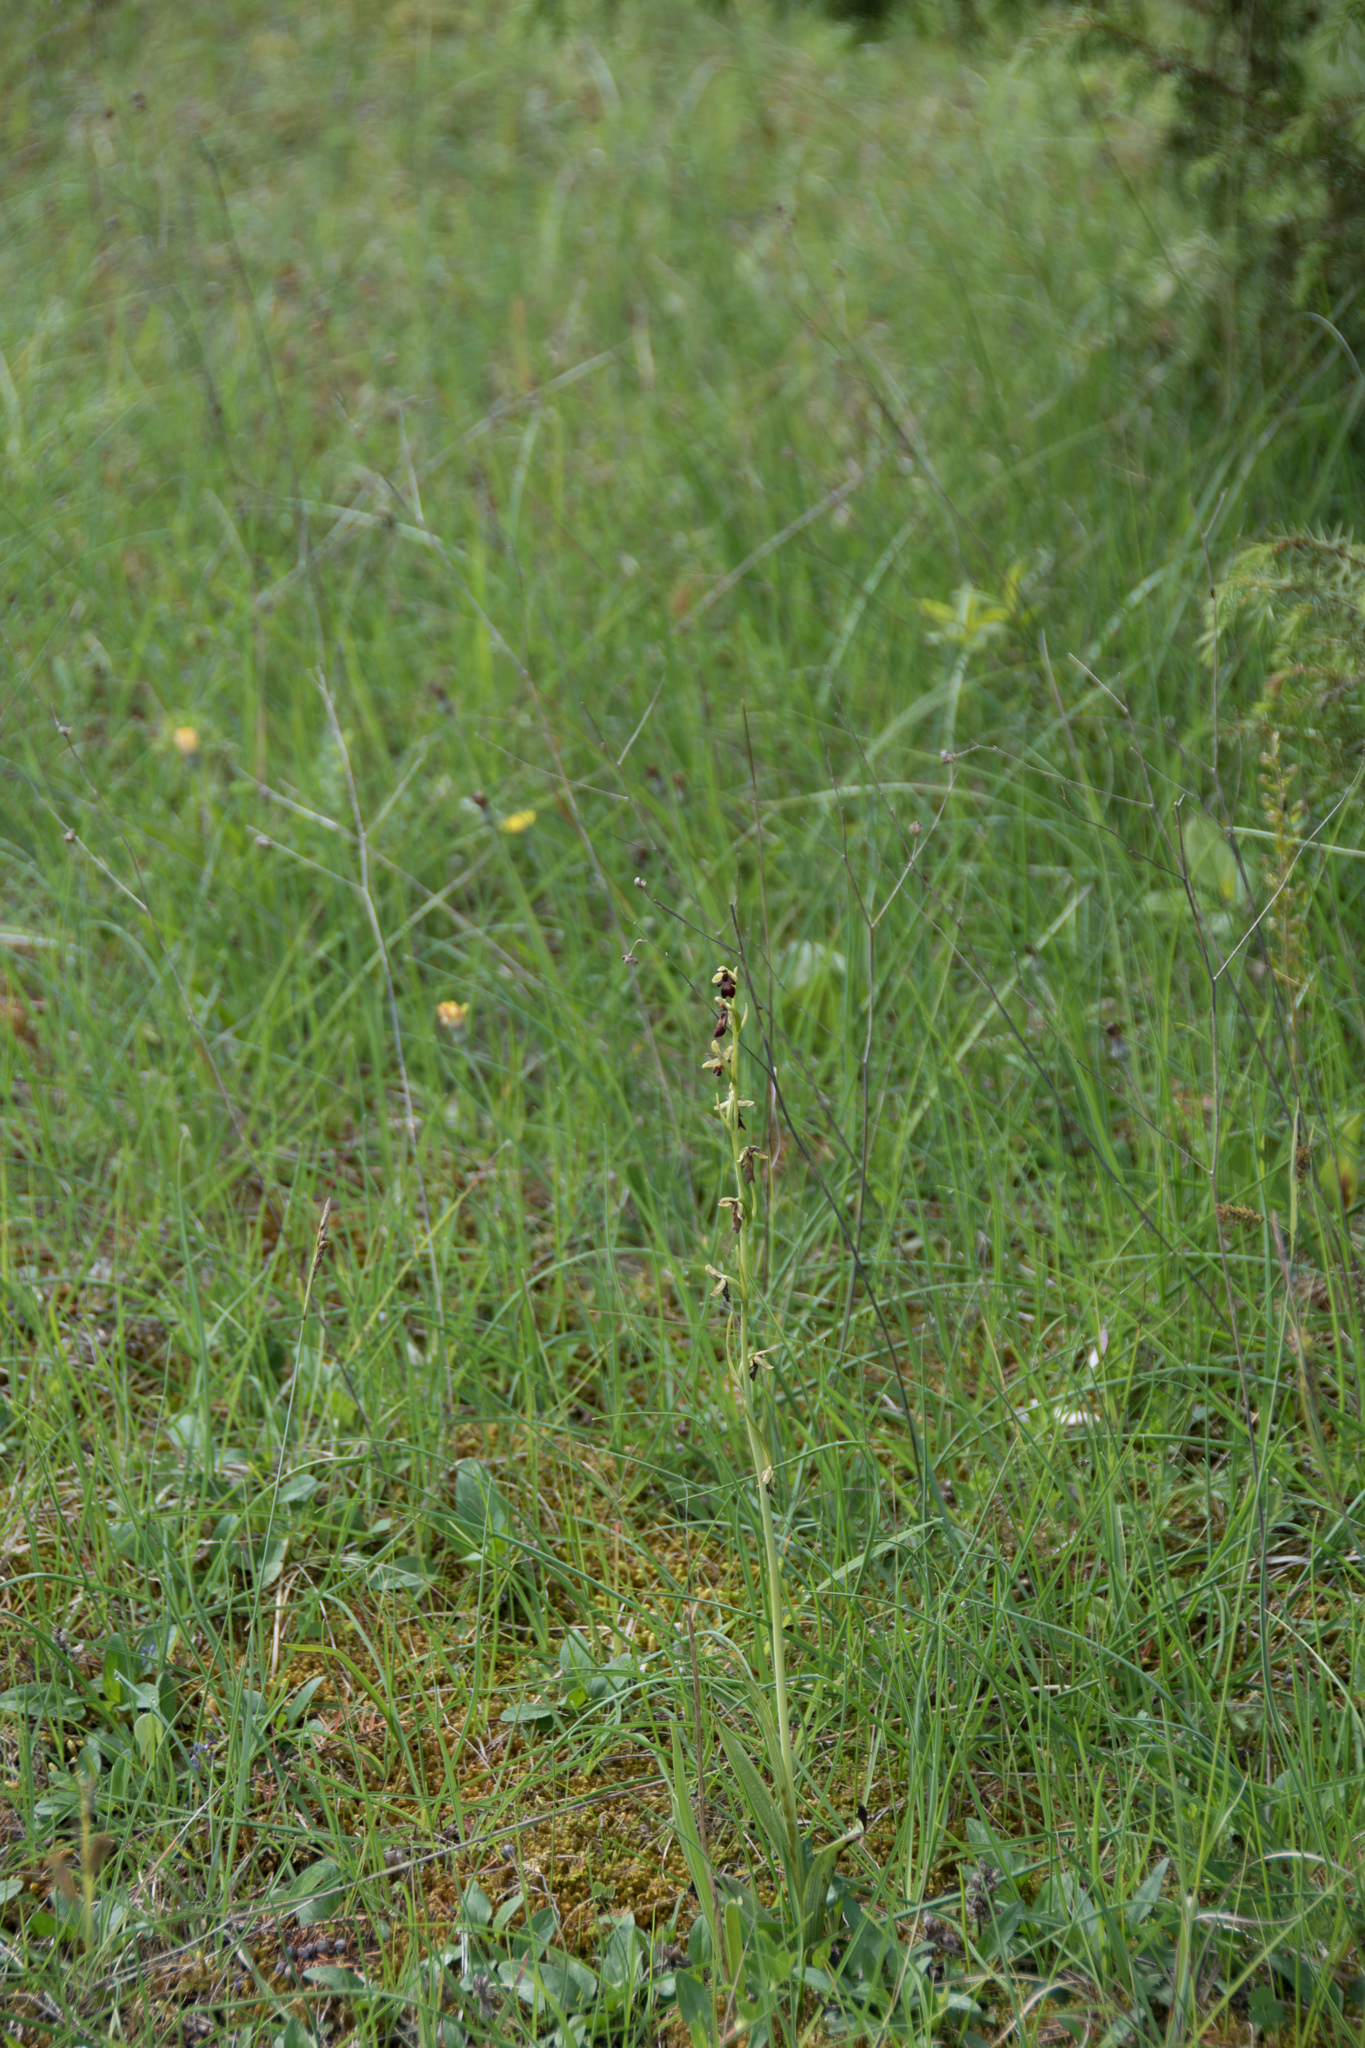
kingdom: Plantae
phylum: Tracheophyta
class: Liliopsida
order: Asparagales
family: Orchidaceae
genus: Ophrys
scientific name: Ophrys insectifera
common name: Fly orchid
